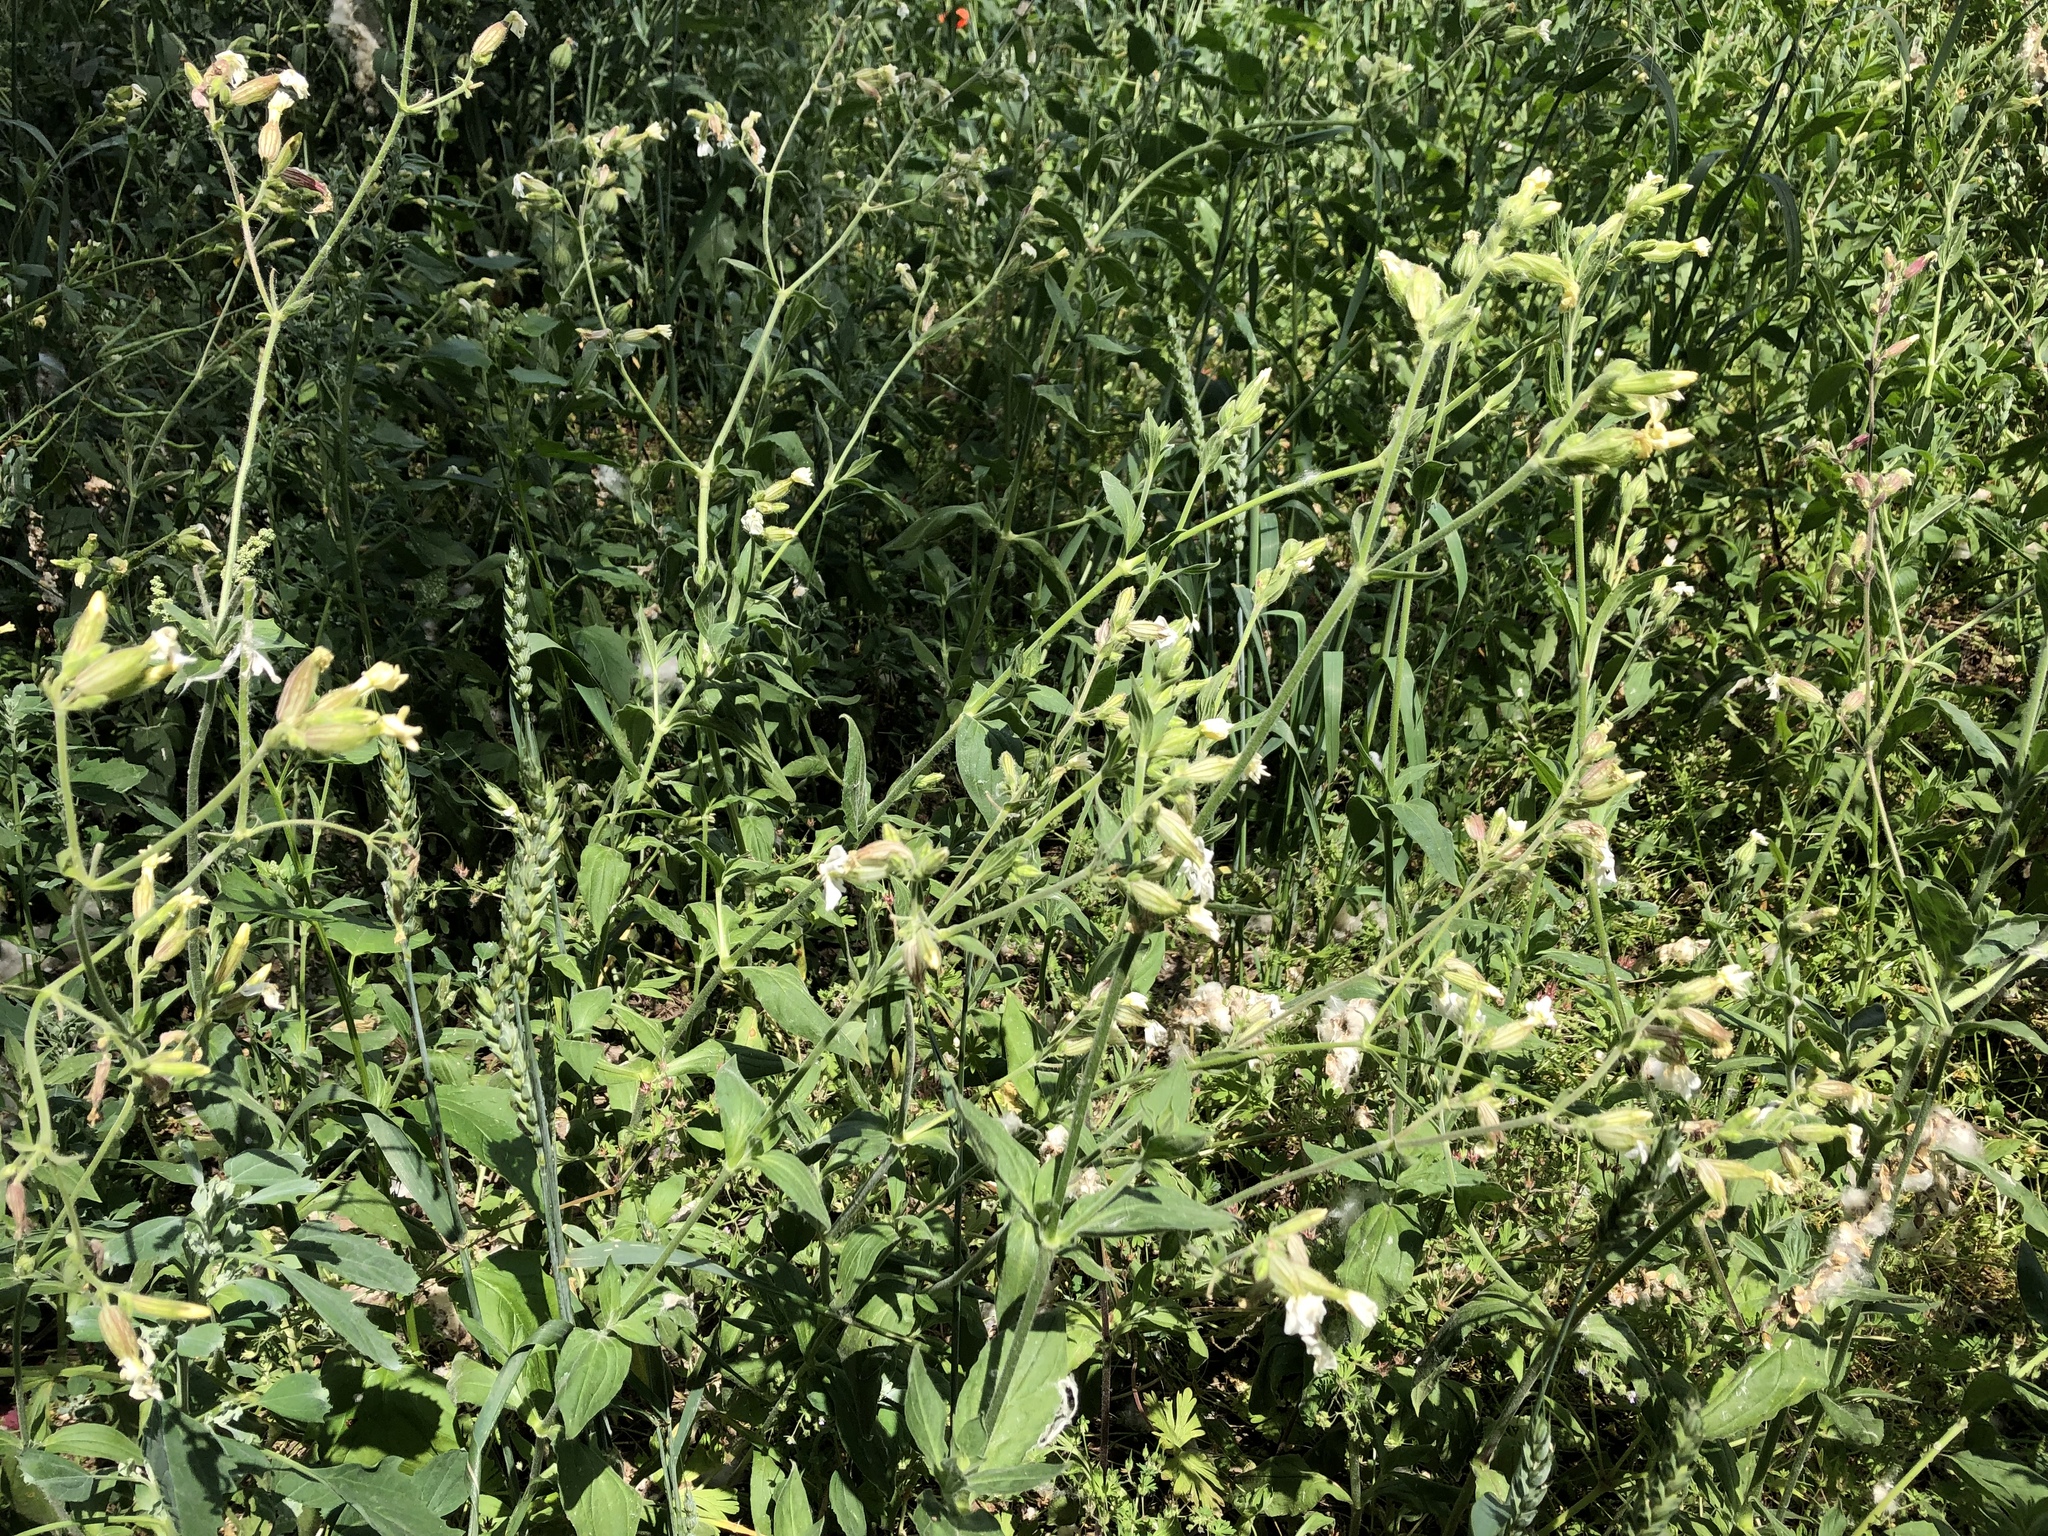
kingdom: Plantae
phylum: Tracheophyta
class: Magnoliopsida
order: Caryophyllales
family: Caryophyllaceae
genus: Silene
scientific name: Silene latifolia
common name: White campion
